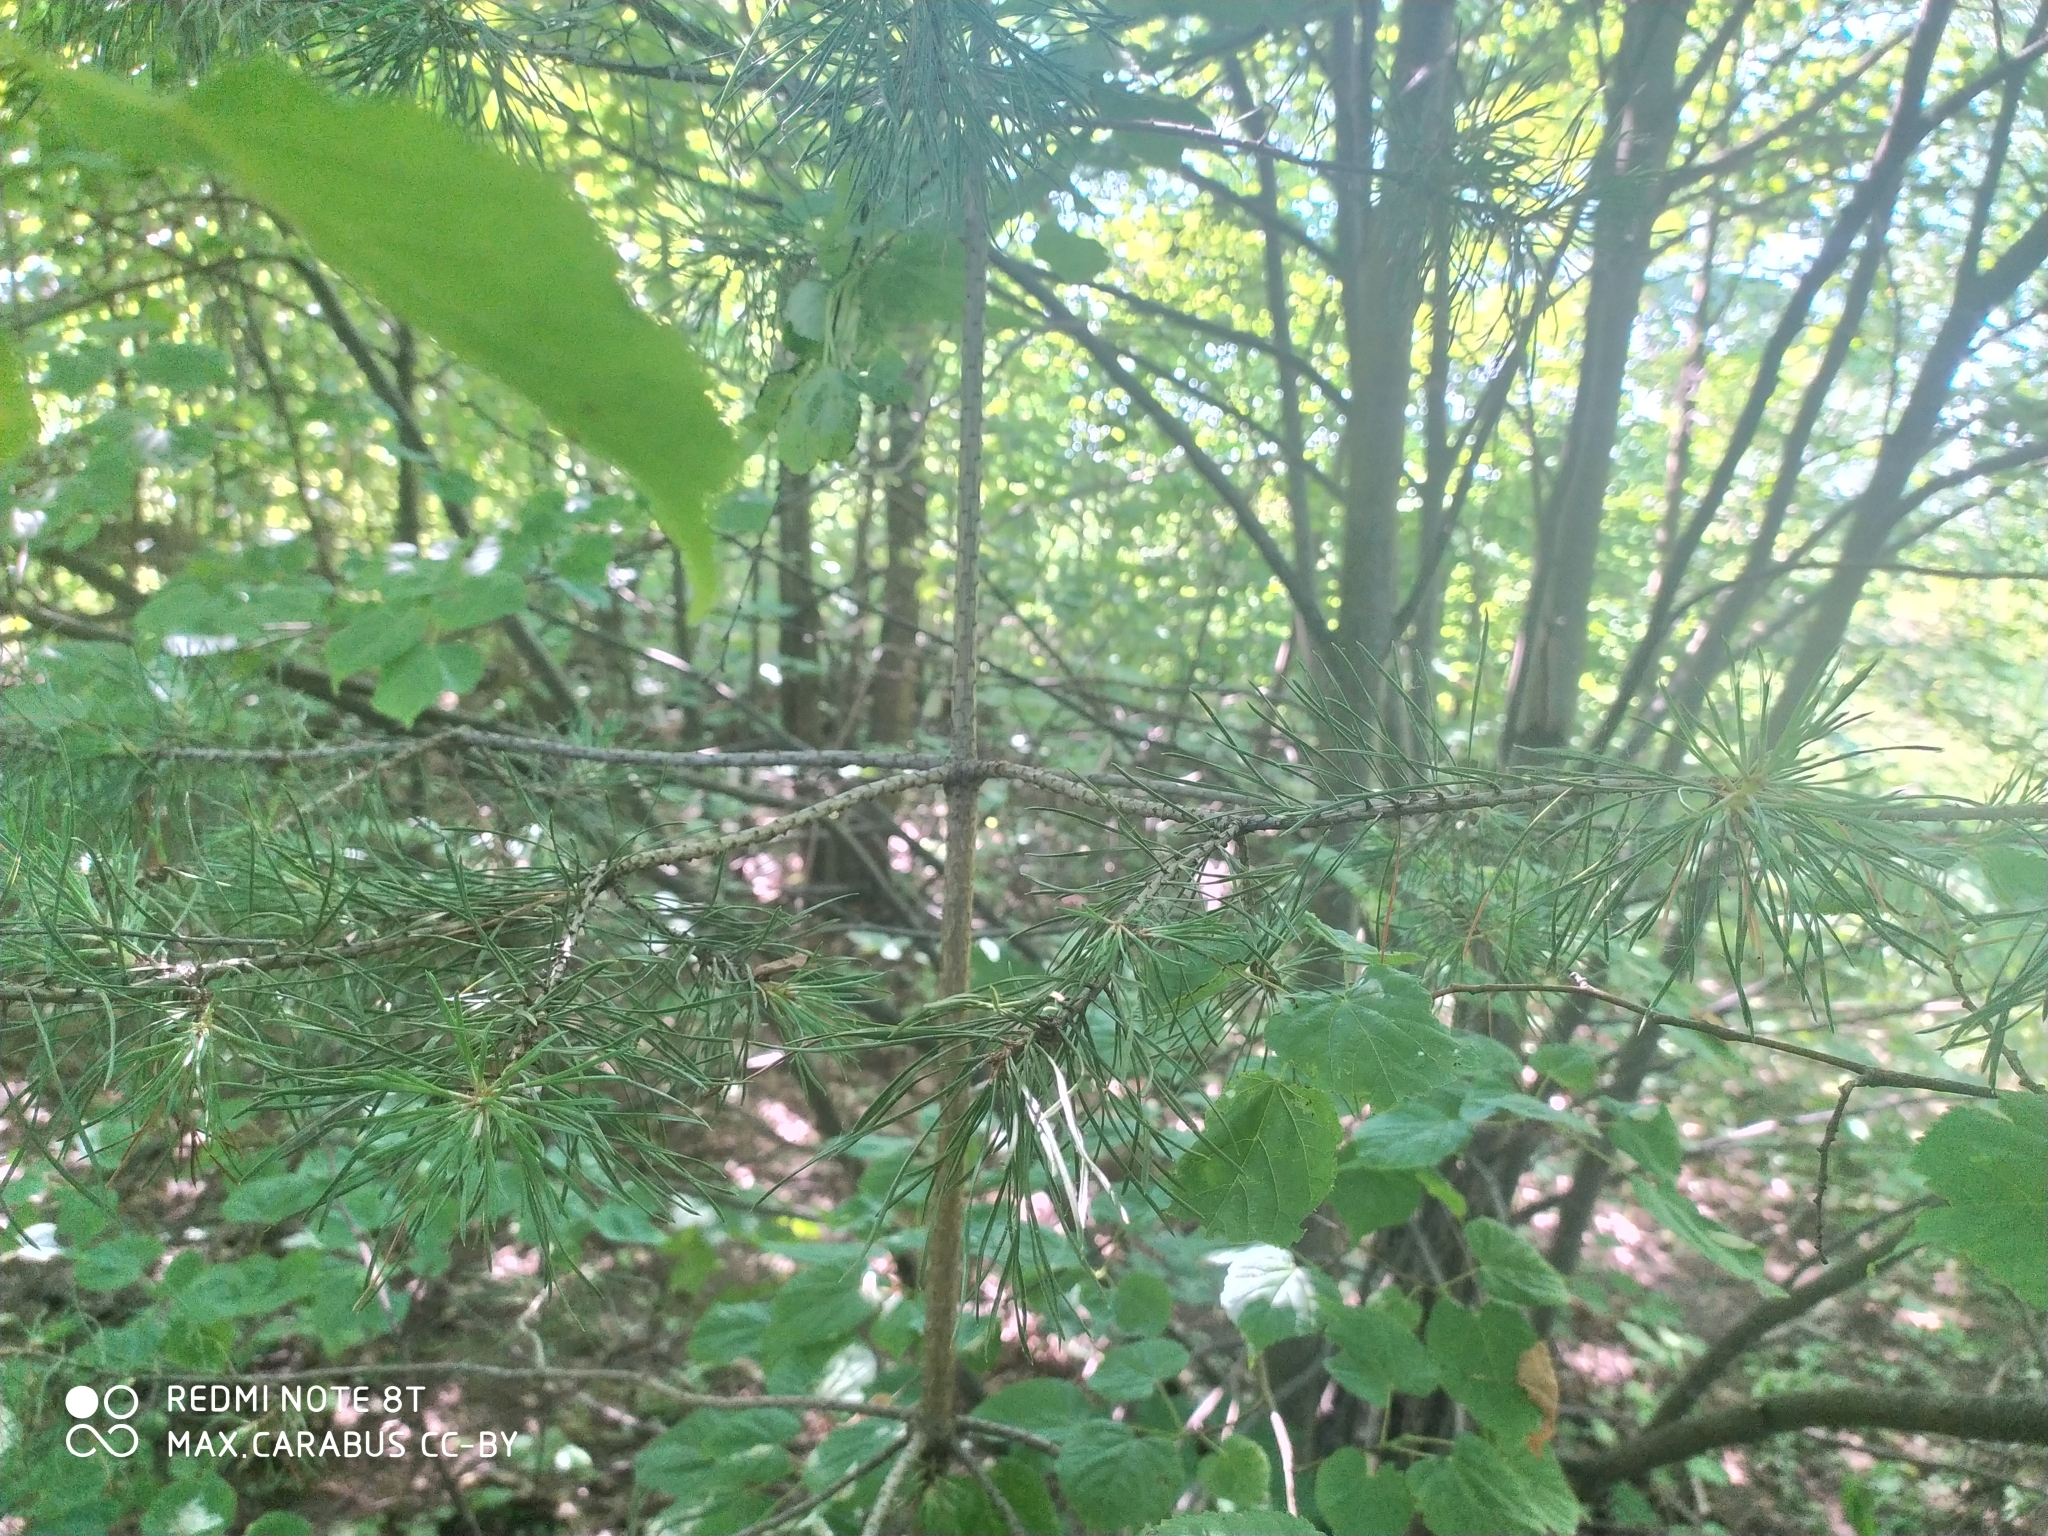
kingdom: Plantae
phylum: Tracheophyta
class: Pinopsida
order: Pinales
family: Pinaceae
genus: Pinus
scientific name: Pinus sylvestris
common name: Scots pine
